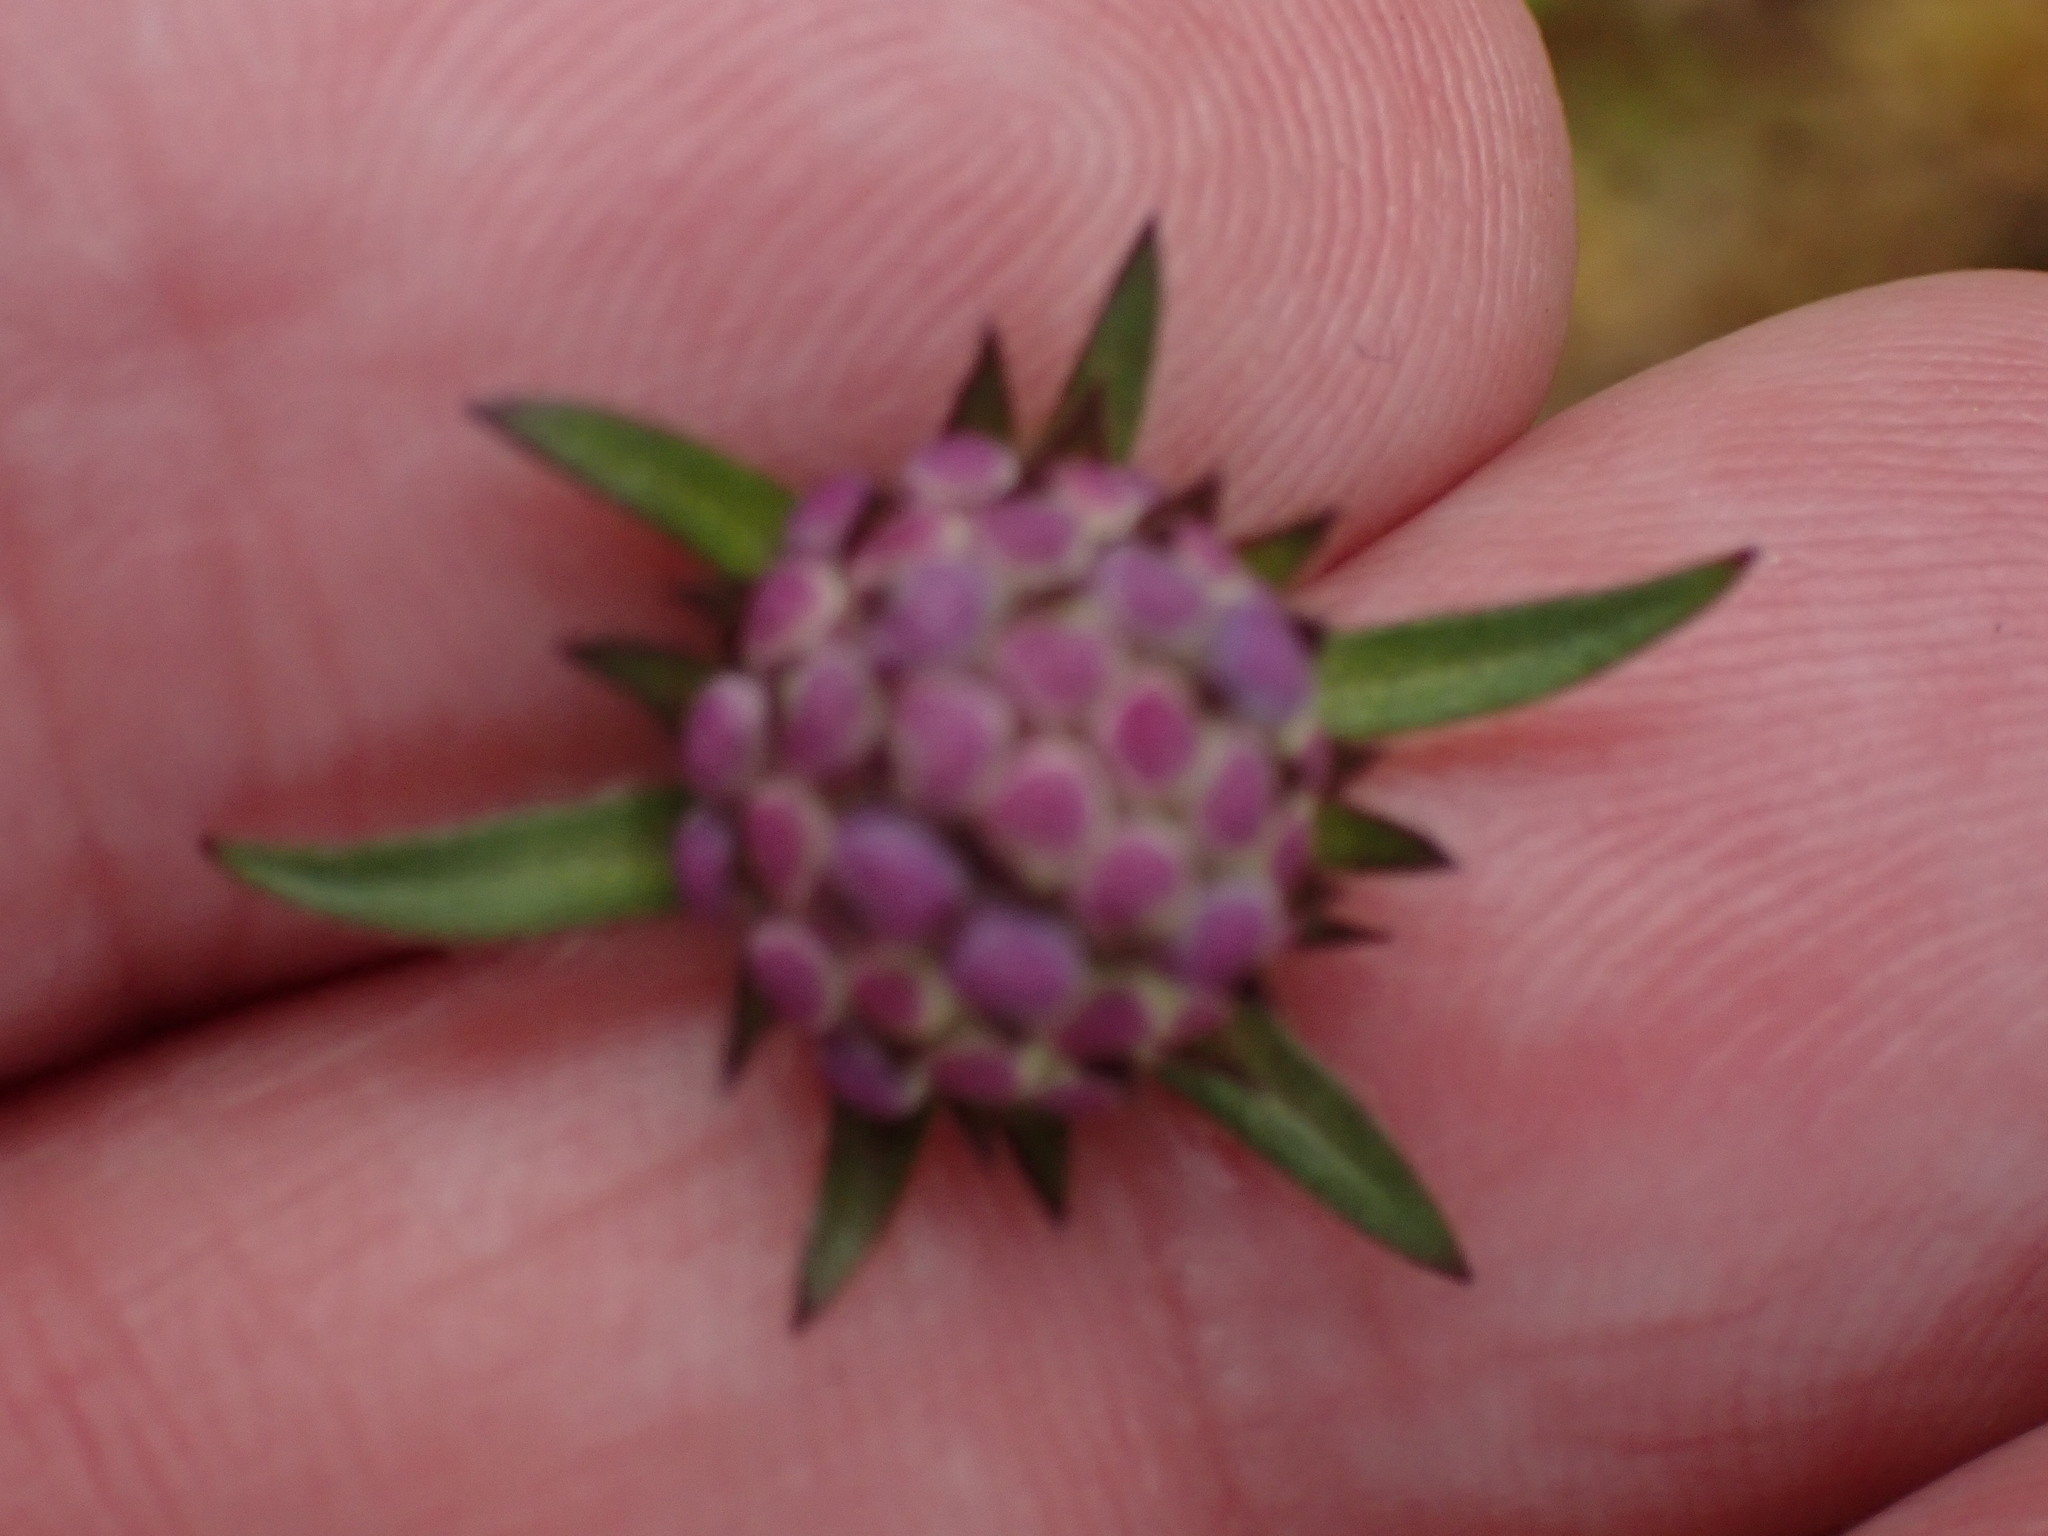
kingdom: Plantae
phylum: Tracheophyta
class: Magnoliopsida
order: Dipsacales
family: Caprifoliaceae
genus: Succisa
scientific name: Succisa pratensis
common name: Devil's-bit
